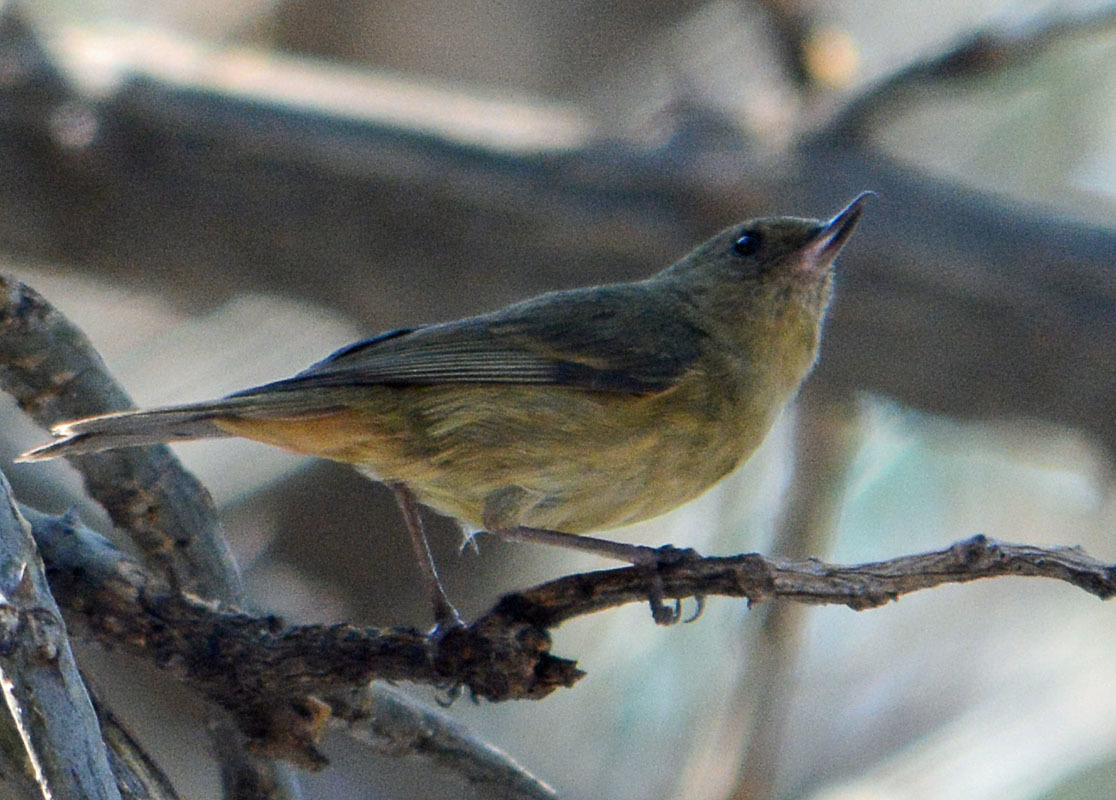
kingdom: Animalia
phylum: Chordata
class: Aves
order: Passeriformes
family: Thraupidae
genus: Diglossa
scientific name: Diglossa baritula
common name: Cinnamon-bellied flowerpiercer
